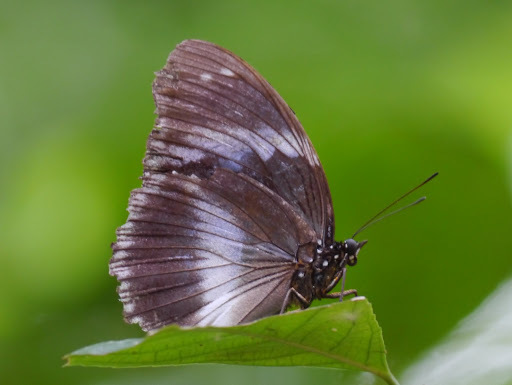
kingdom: Animalia
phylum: Arthropoda
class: Insecta
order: Lepidoptera
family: Nymphalidae
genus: Hypolimnas
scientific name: Hypolimnas salmacis
